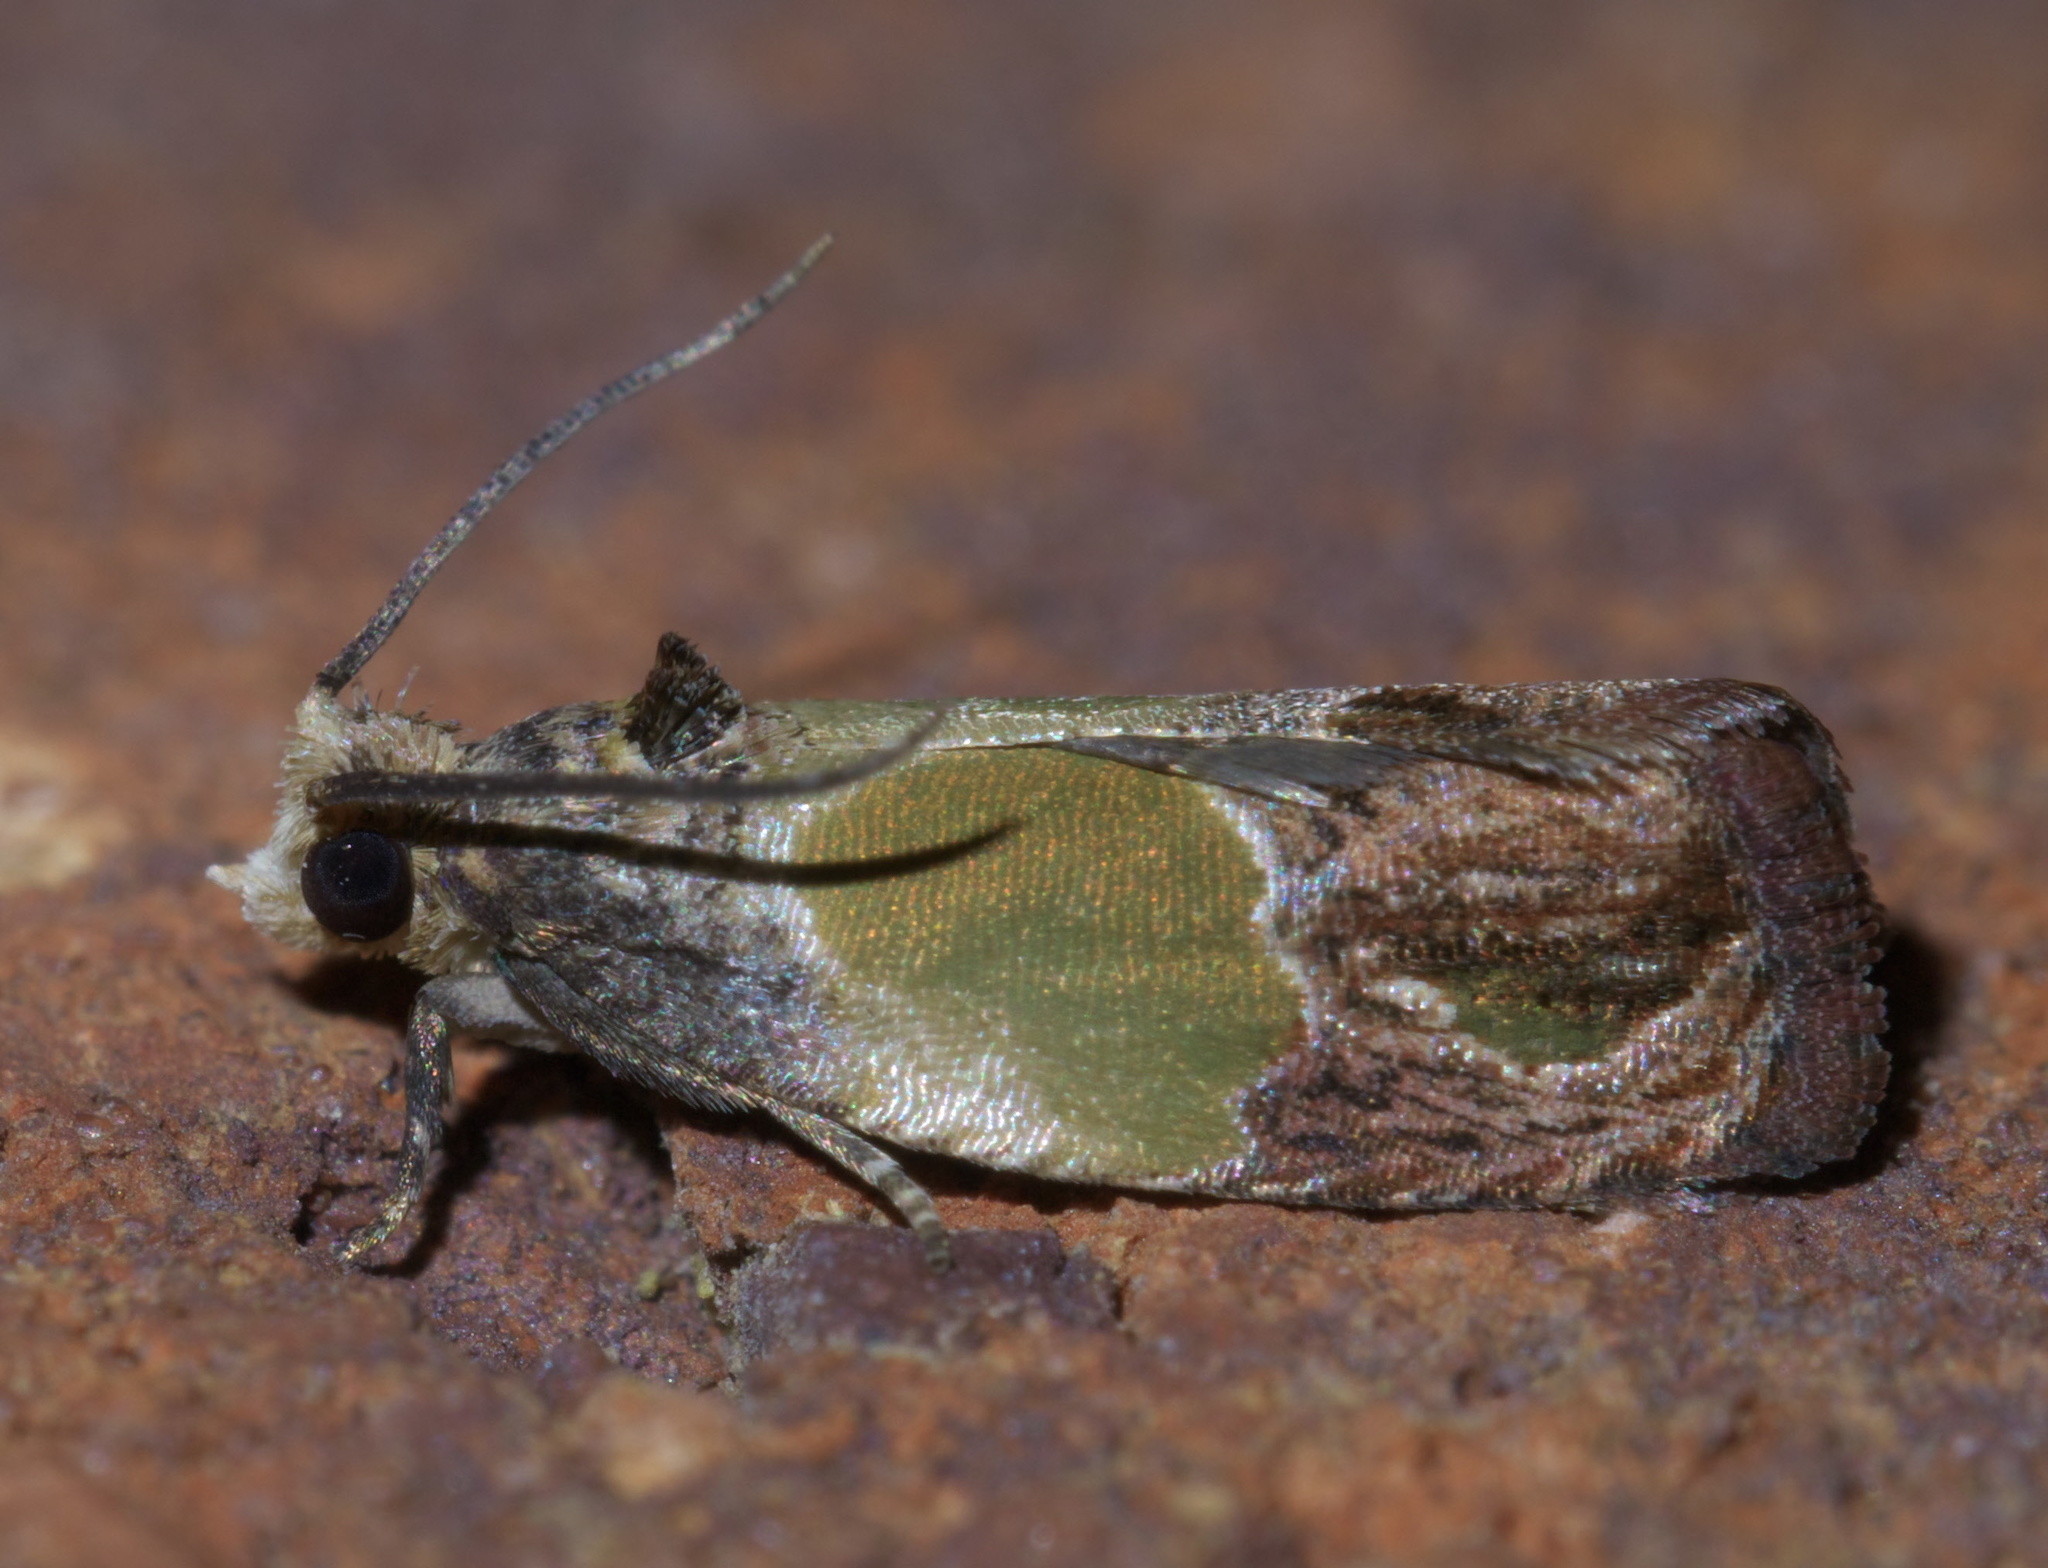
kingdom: Animalia
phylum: Arthropoda
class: Insecta
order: Lepidoptera
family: Tortricidae
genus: Eumarozia
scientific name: Eumarozia malachitana
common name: Sculptured moth
